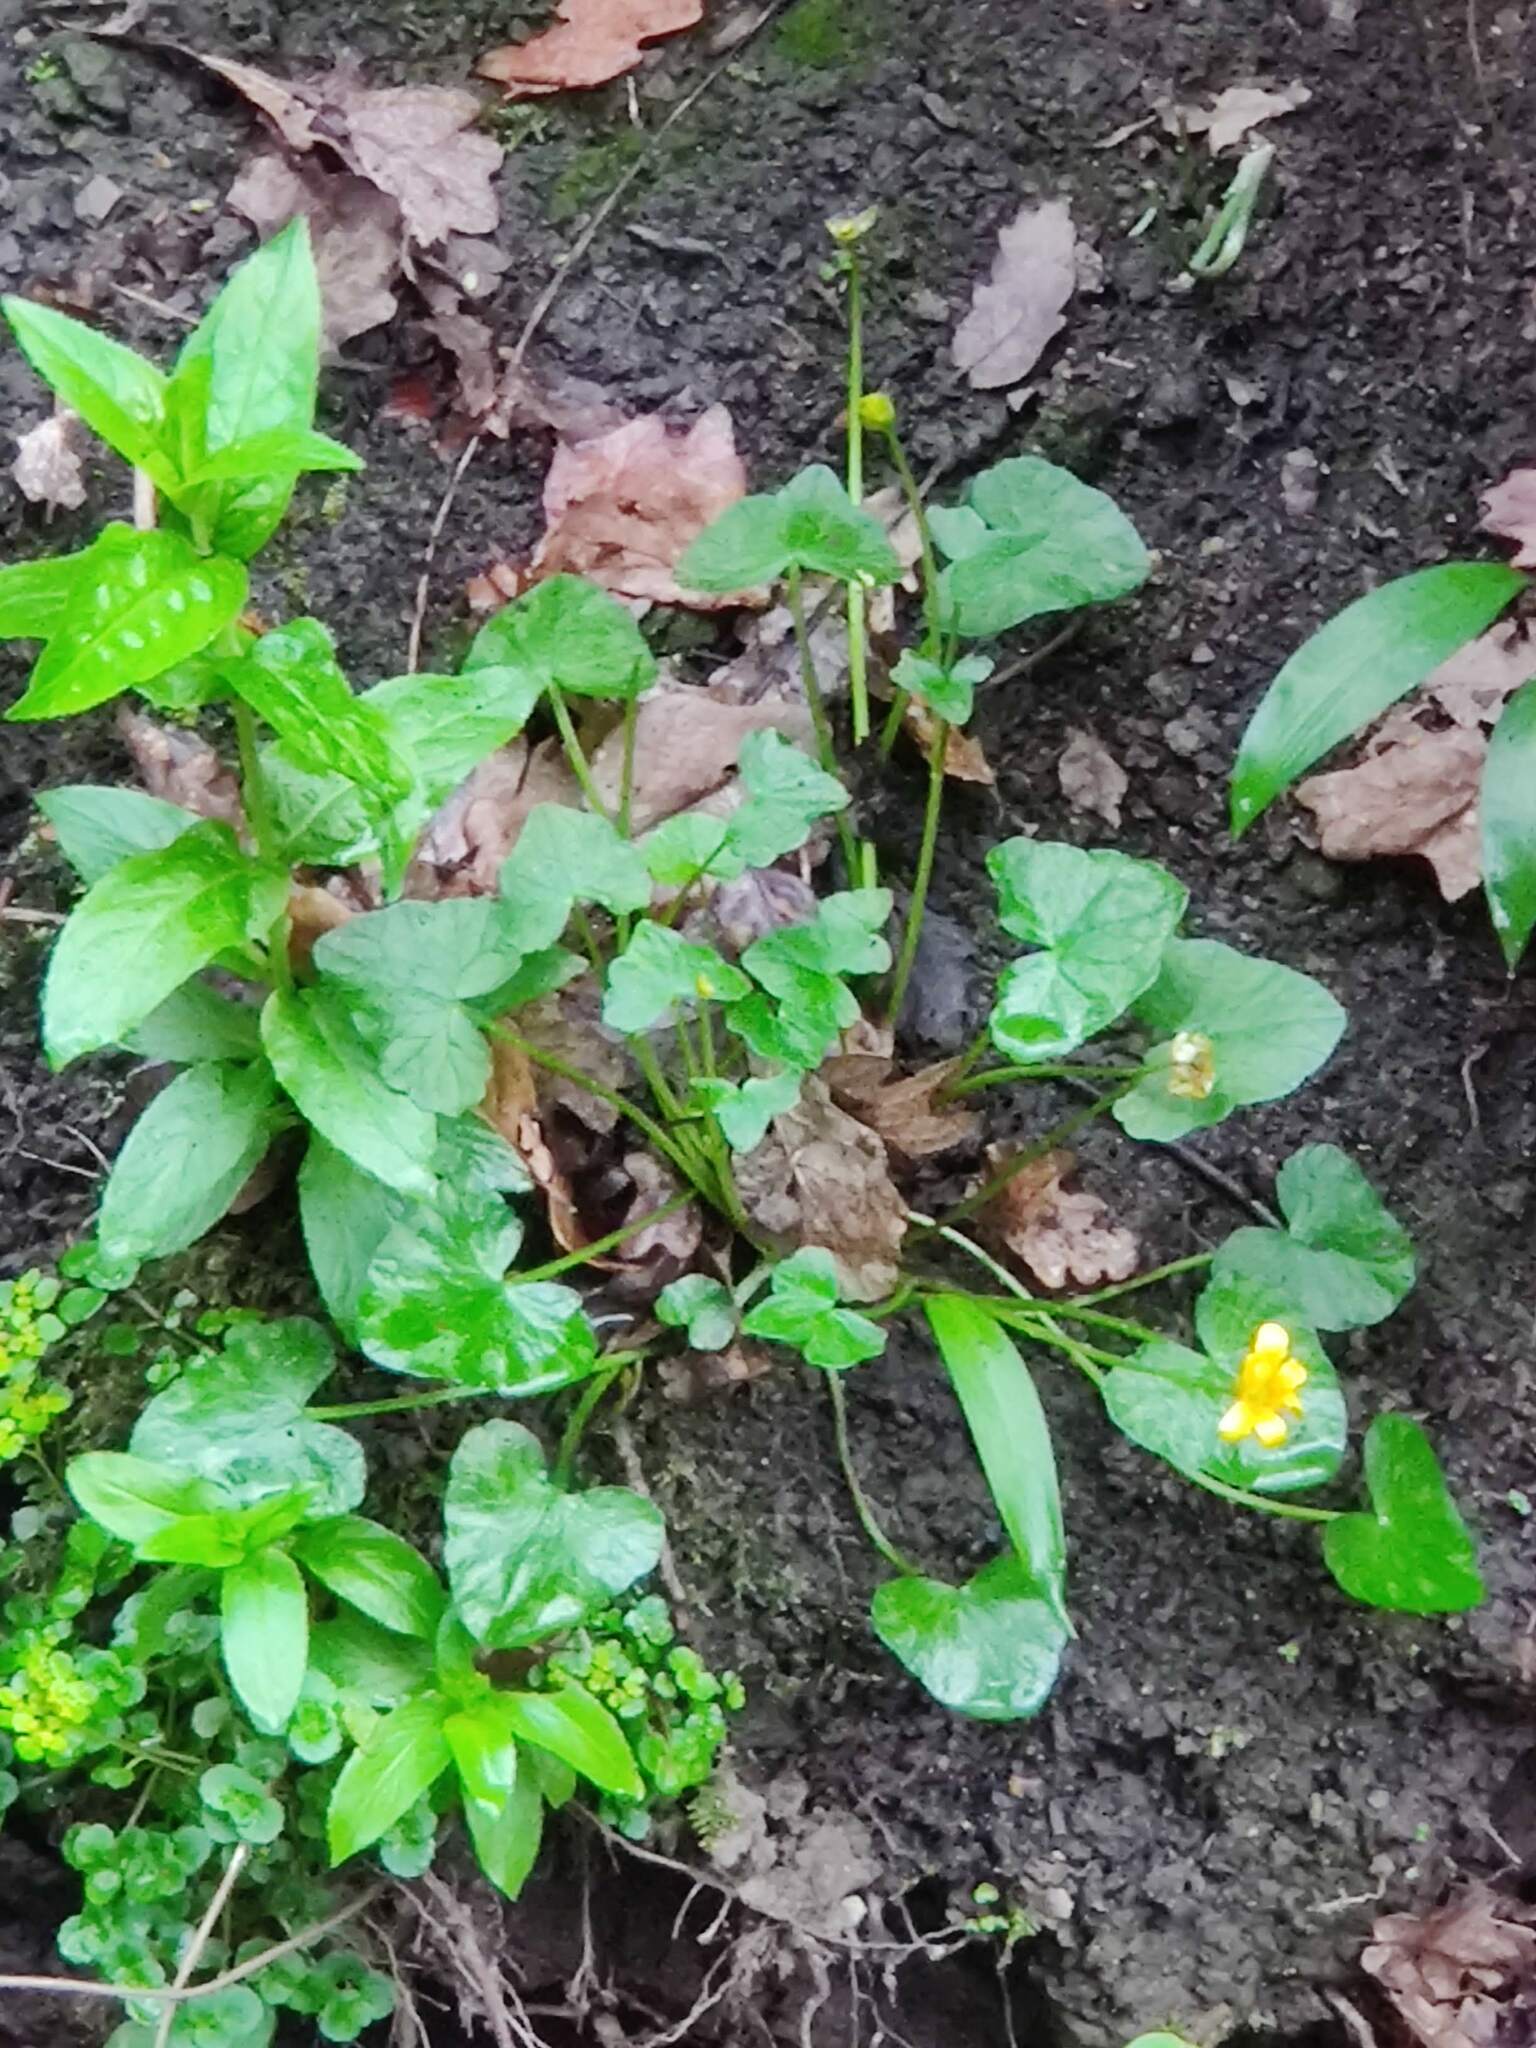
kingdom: Plantae
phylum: Tracheophyta
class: Magnoliopsida
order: Ranunculales
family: Ranunculaceae
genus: Ficaria
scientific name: Ficaria verna
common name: Lesser celandine
